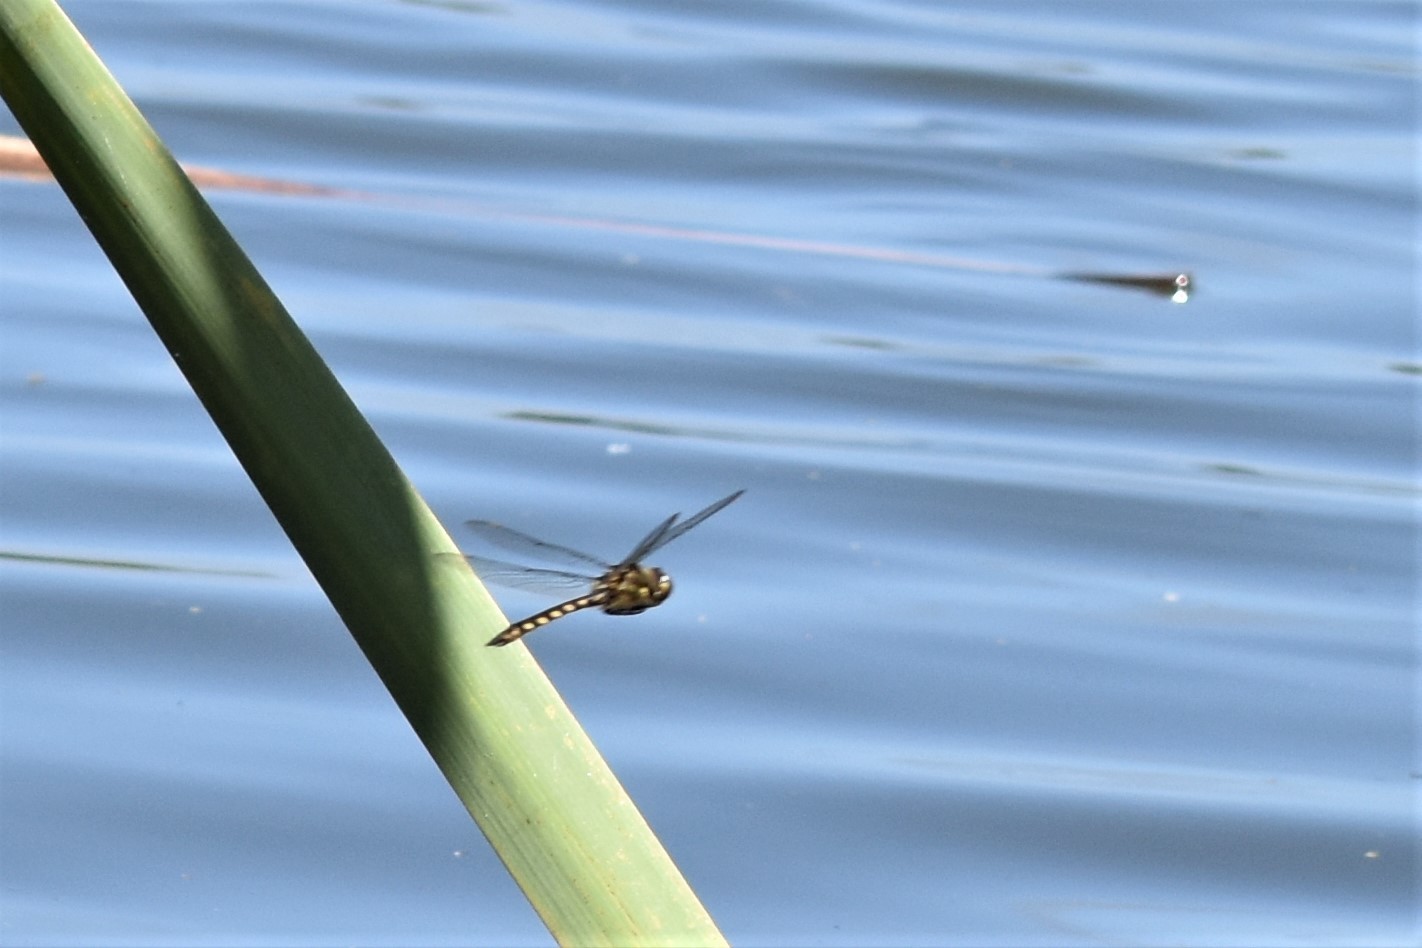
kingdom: Animalia
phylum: Arthropoda
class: Insecta
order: Odonata
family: Corduliidae
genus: Procordulia
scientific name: Procordulia grayi
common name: Yellow spotted dragonfly
